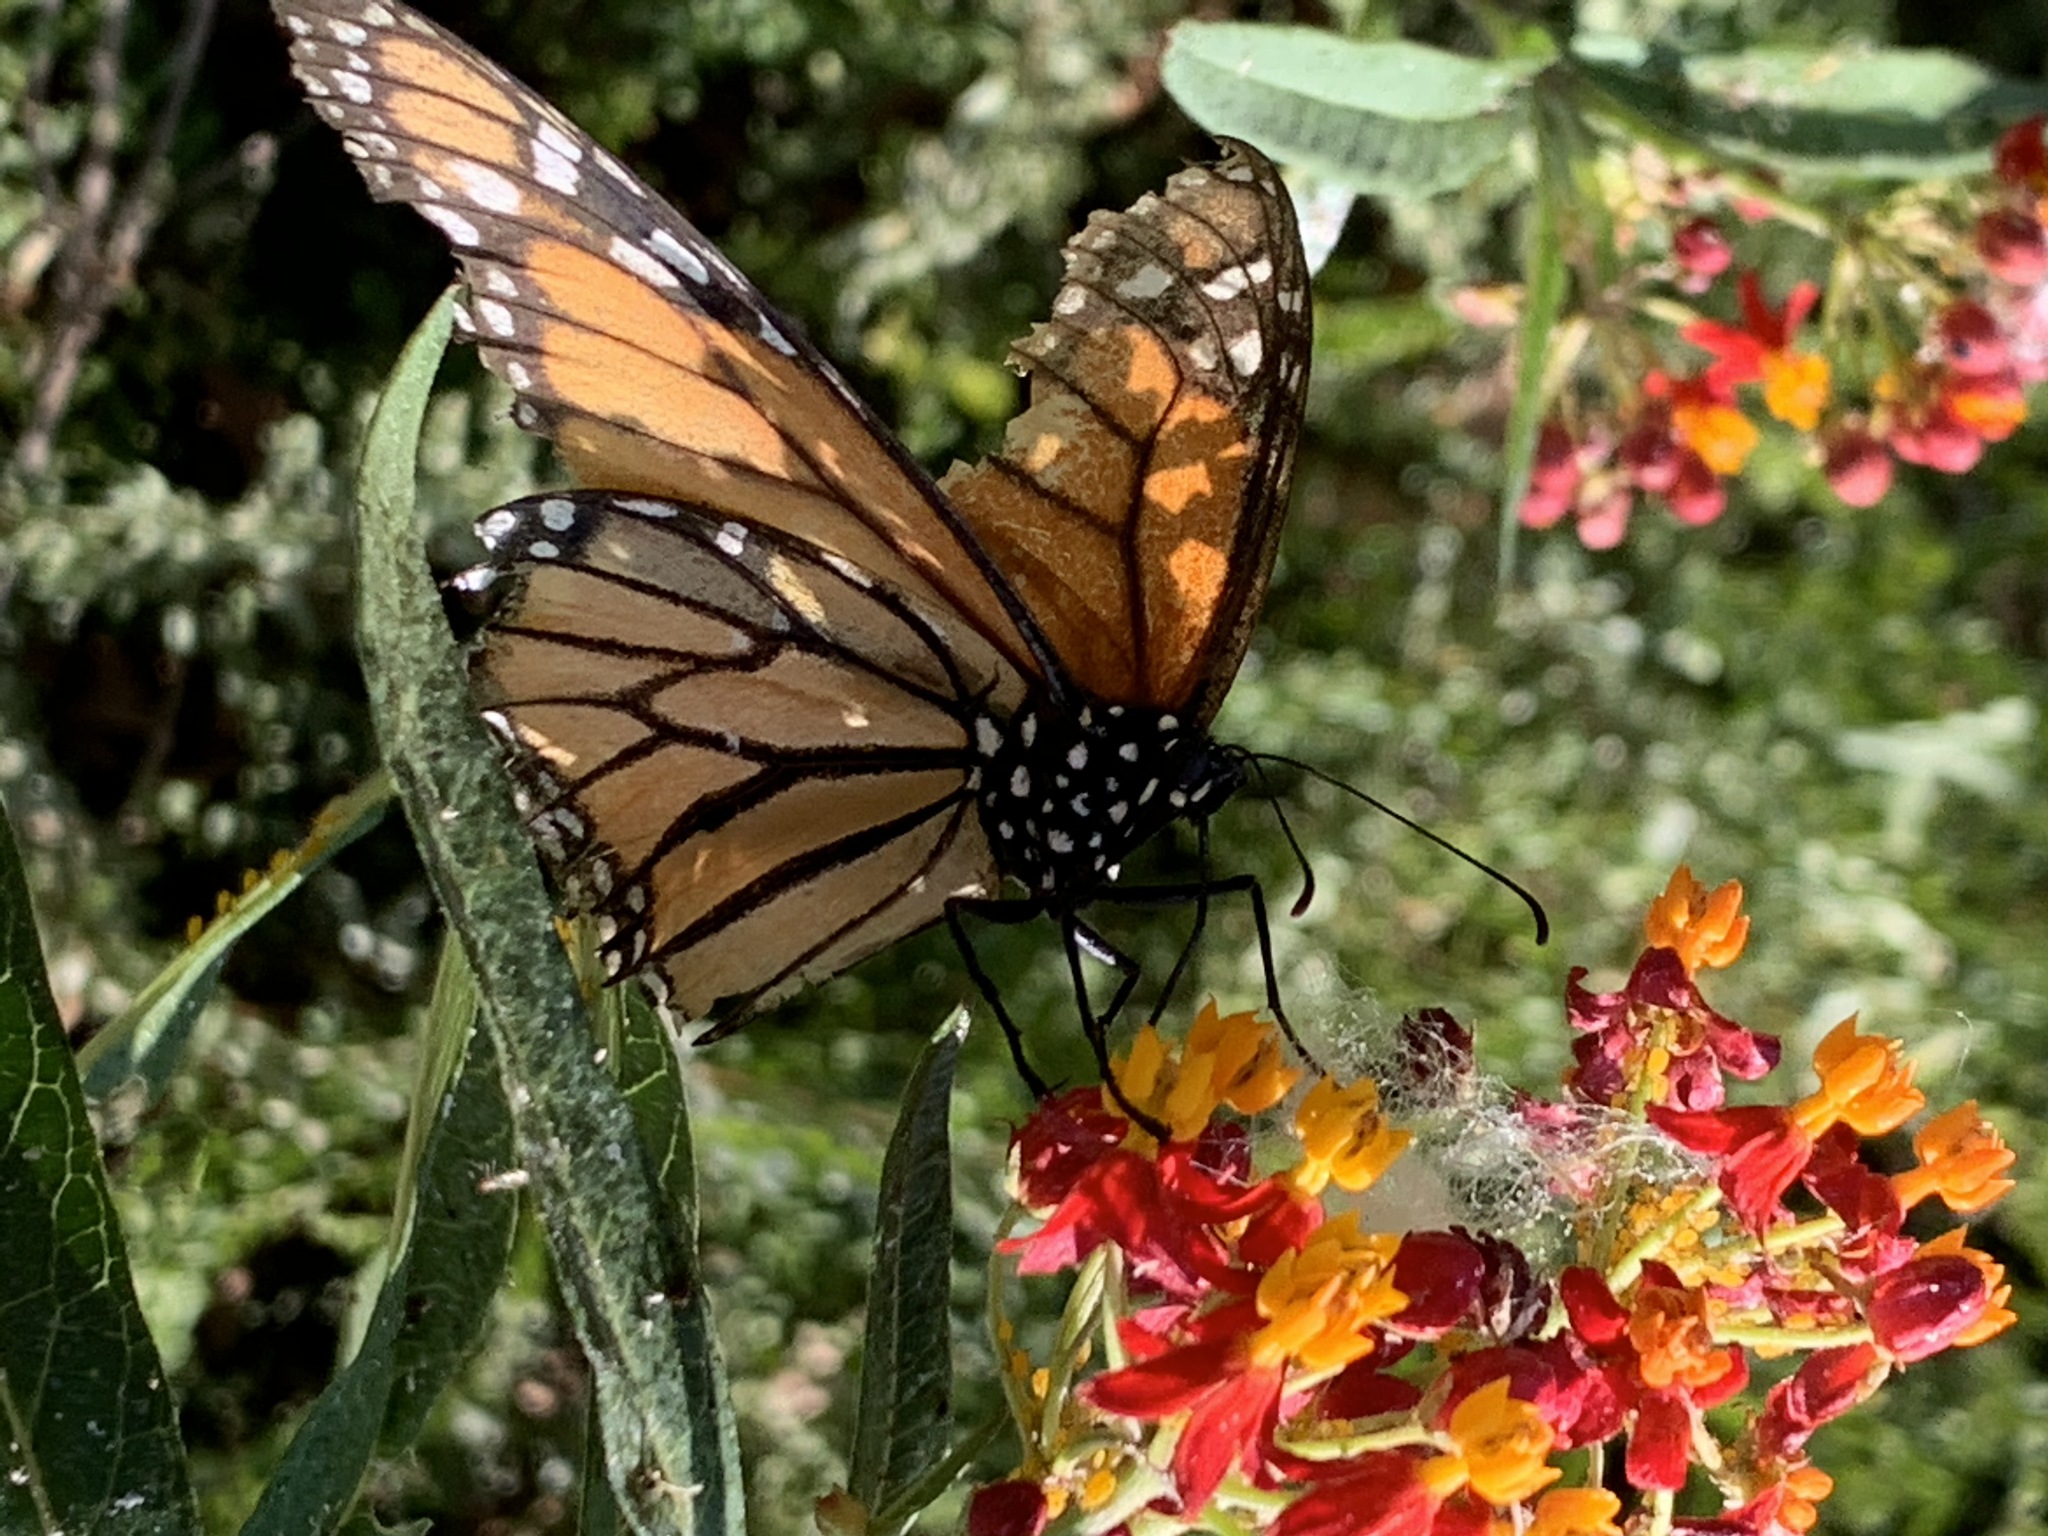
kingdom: Animalia
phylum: Arthropoda
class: Insecta
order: Lepidoptera
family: Nymphalidae
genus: Danaus
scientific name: Danaus plexippus
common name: Monarch
